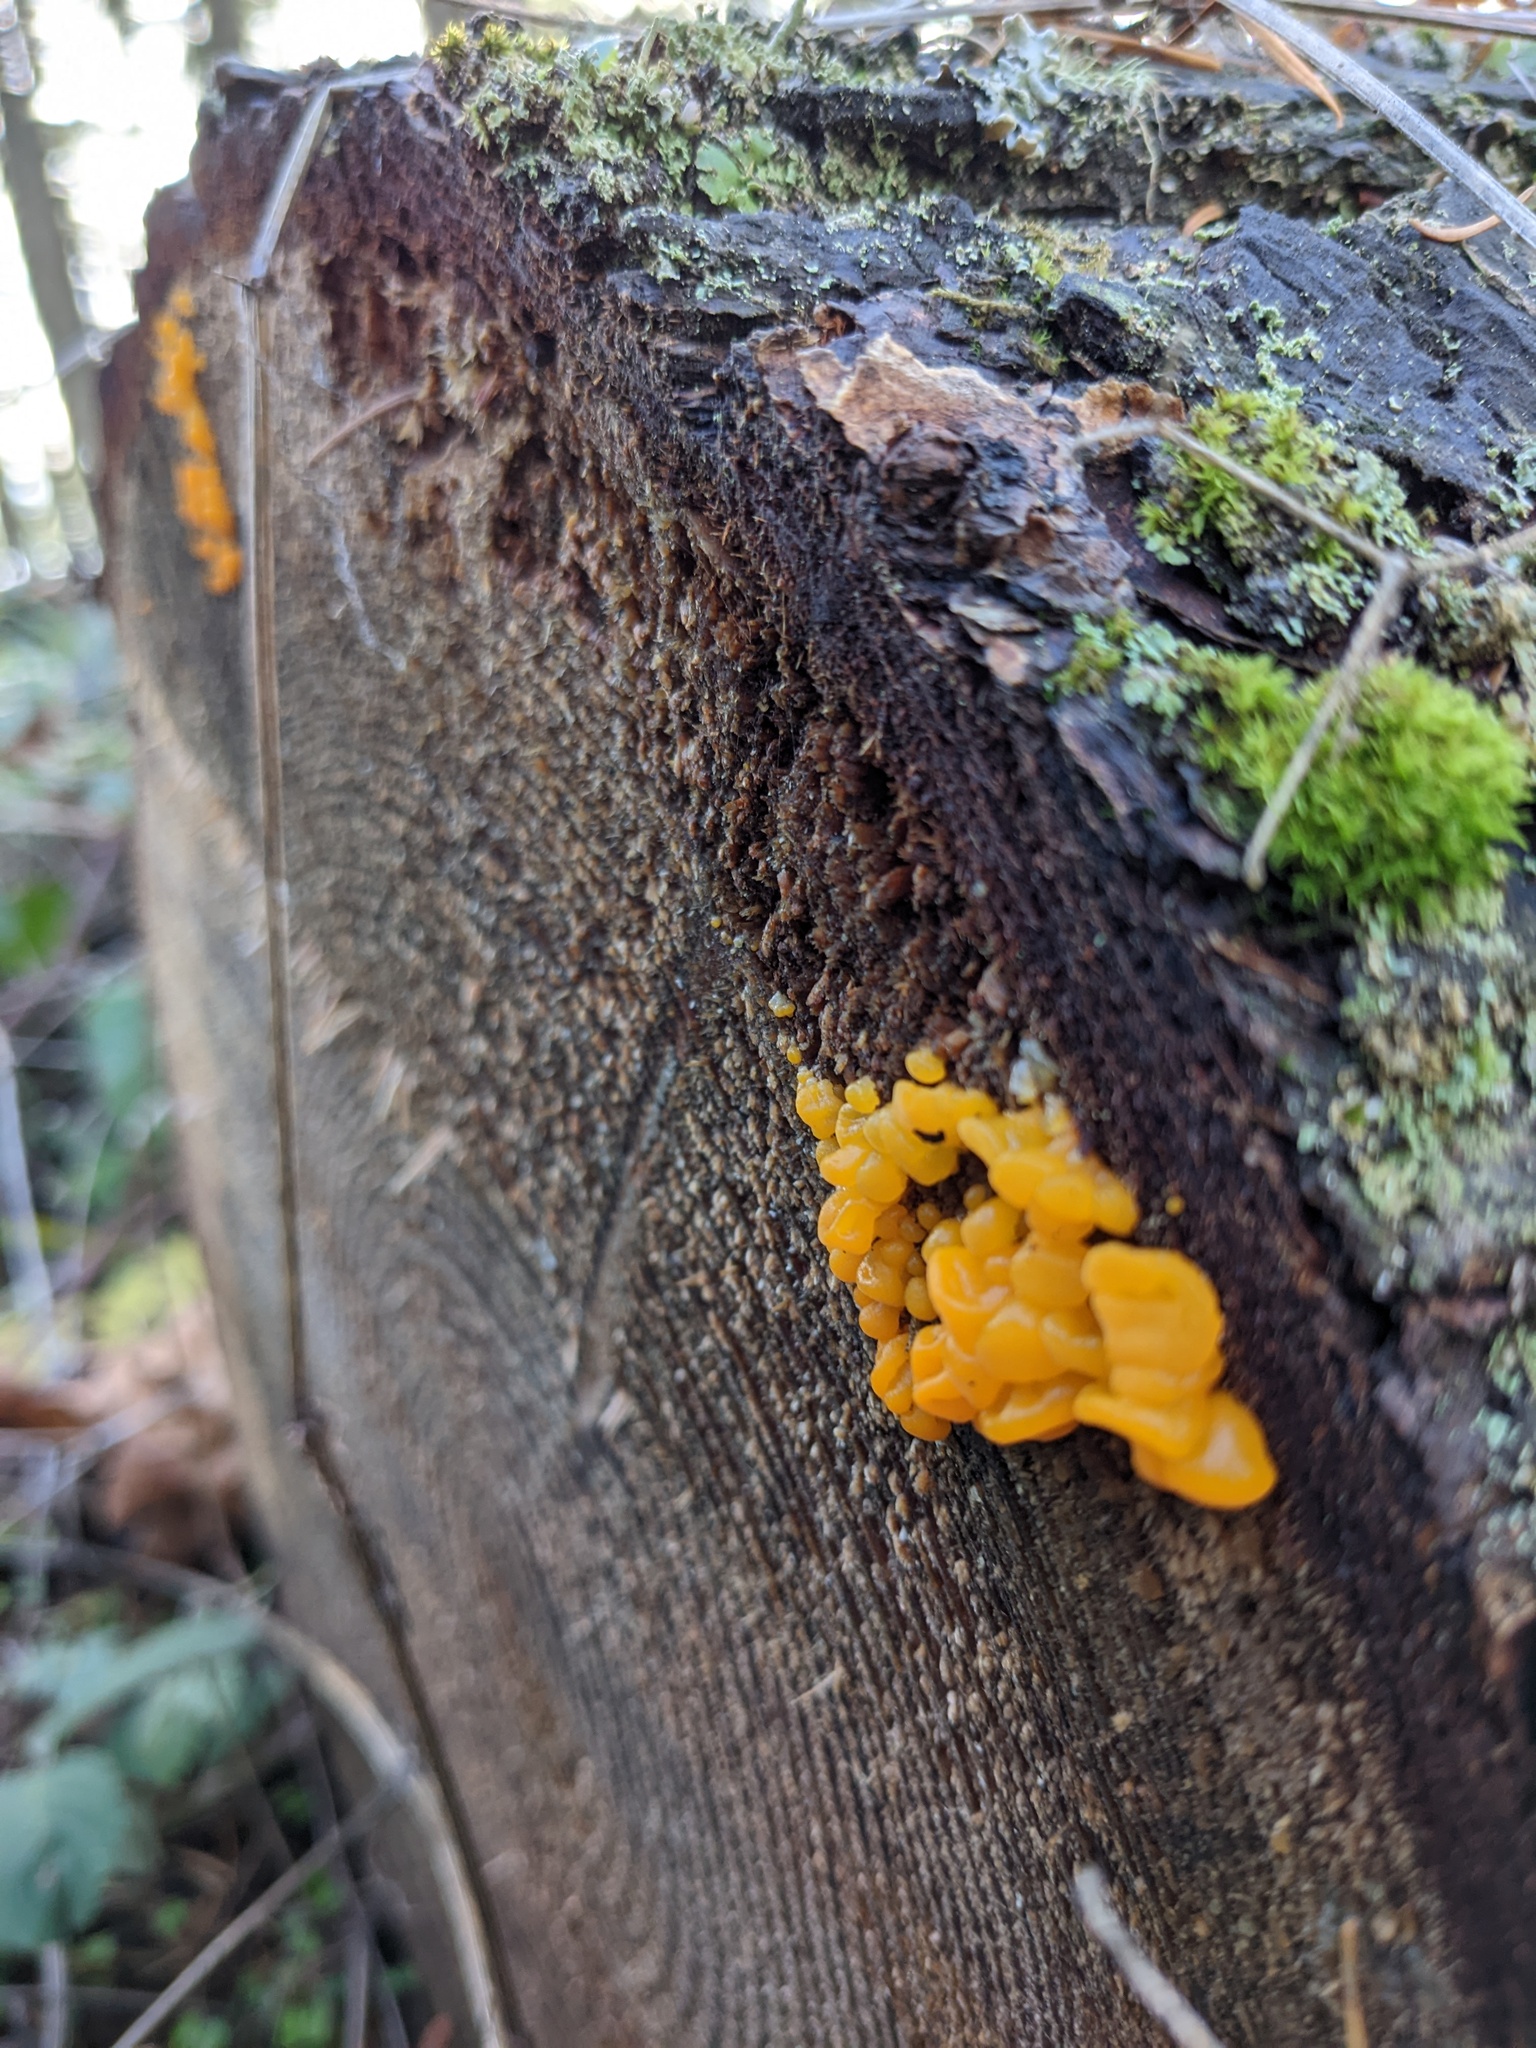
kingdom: Fungi
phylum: Basidiomycota
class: Dacrymycetes
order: Dacrymycetales
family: Dacrymycetaceae
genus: Dacrymyces
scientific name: Dacrymyces chrysospermus
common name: Orange jelly spot
